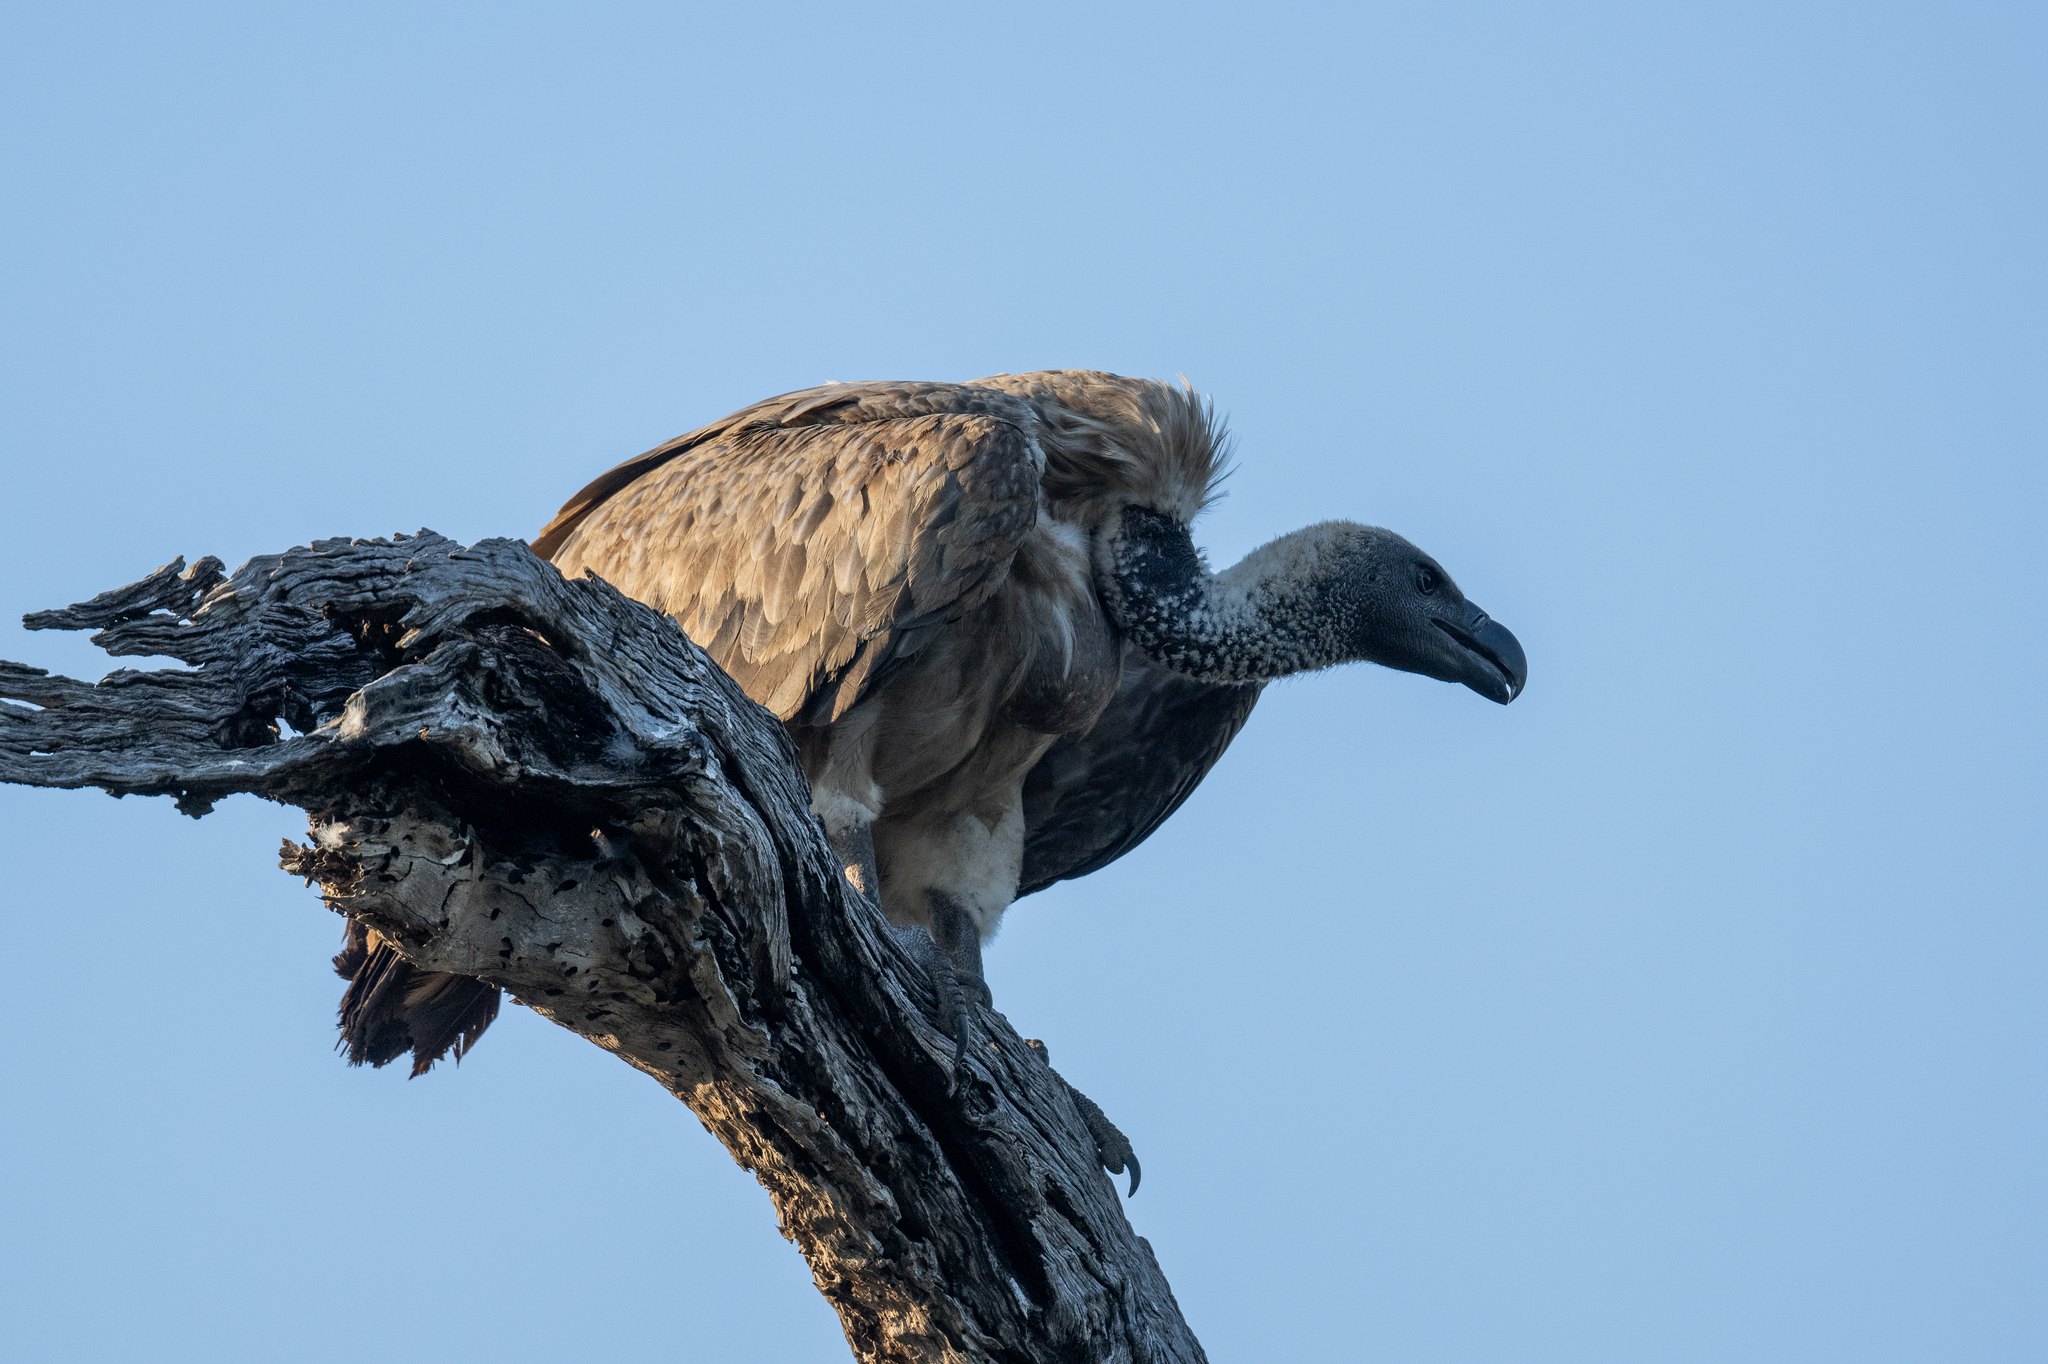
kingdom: Animalia
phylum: Chordata
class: Aves
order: Accipitriformes
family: Accipitridae
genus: Gyps
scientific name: Gyps africanus
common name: White-backed vulture
